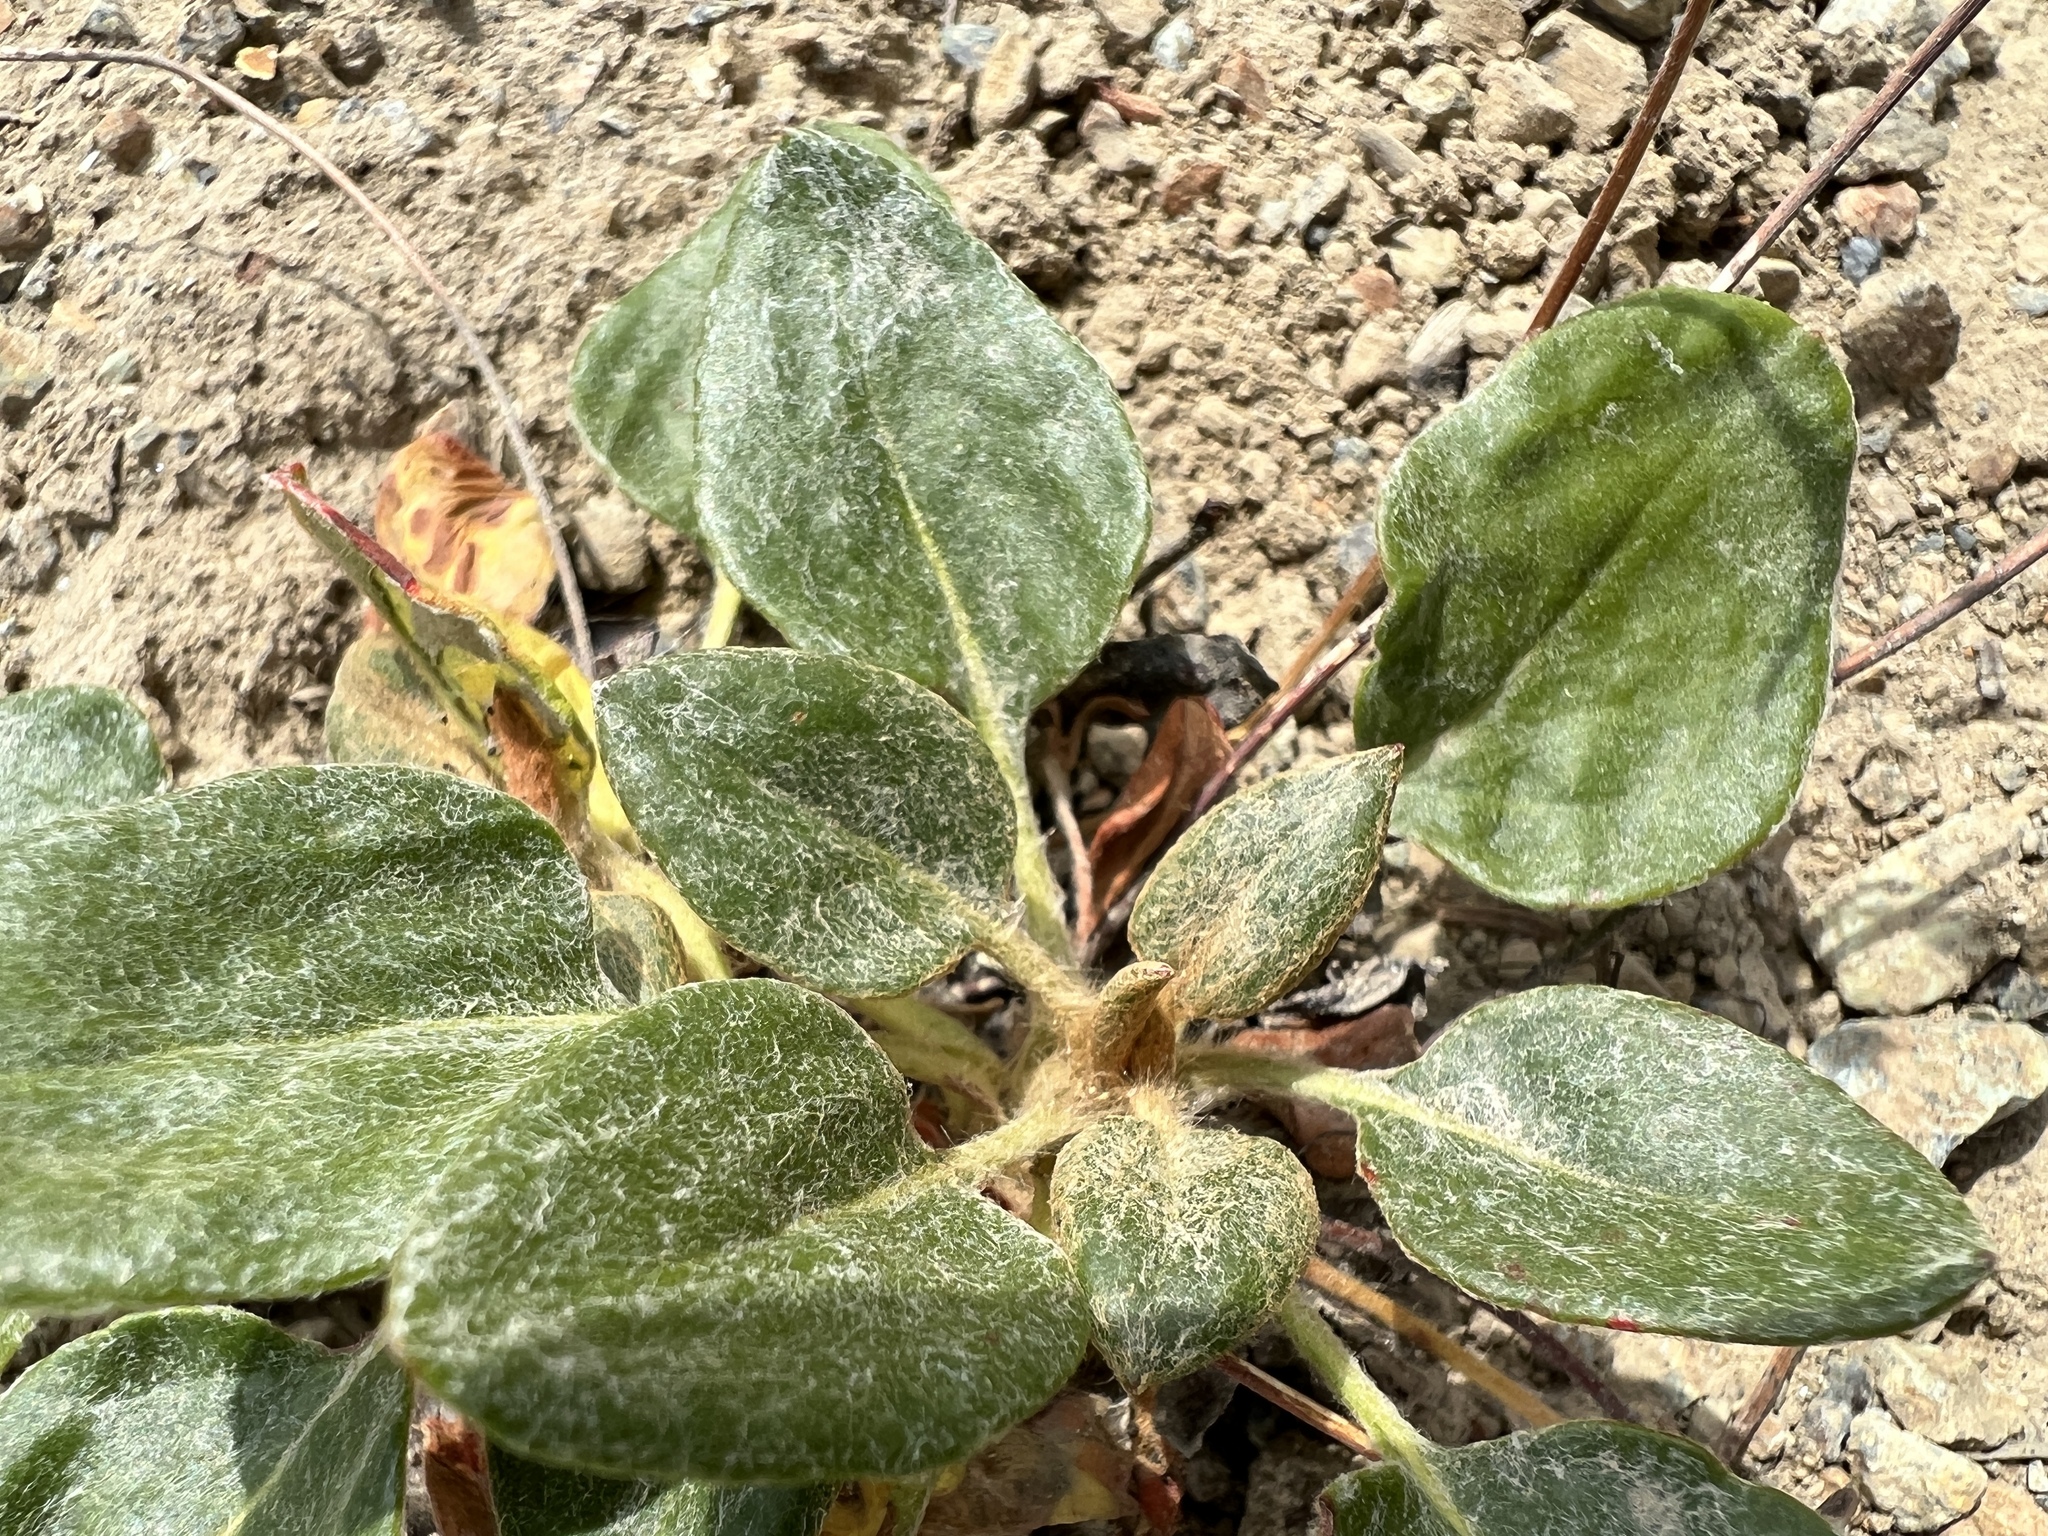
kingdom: Plantae
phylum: Tracheophyta
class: Magnoliopsida
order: Caryophyllales
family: Polygonaceae
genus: Eriogonum
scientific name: Eriogonum pyrolifolium
